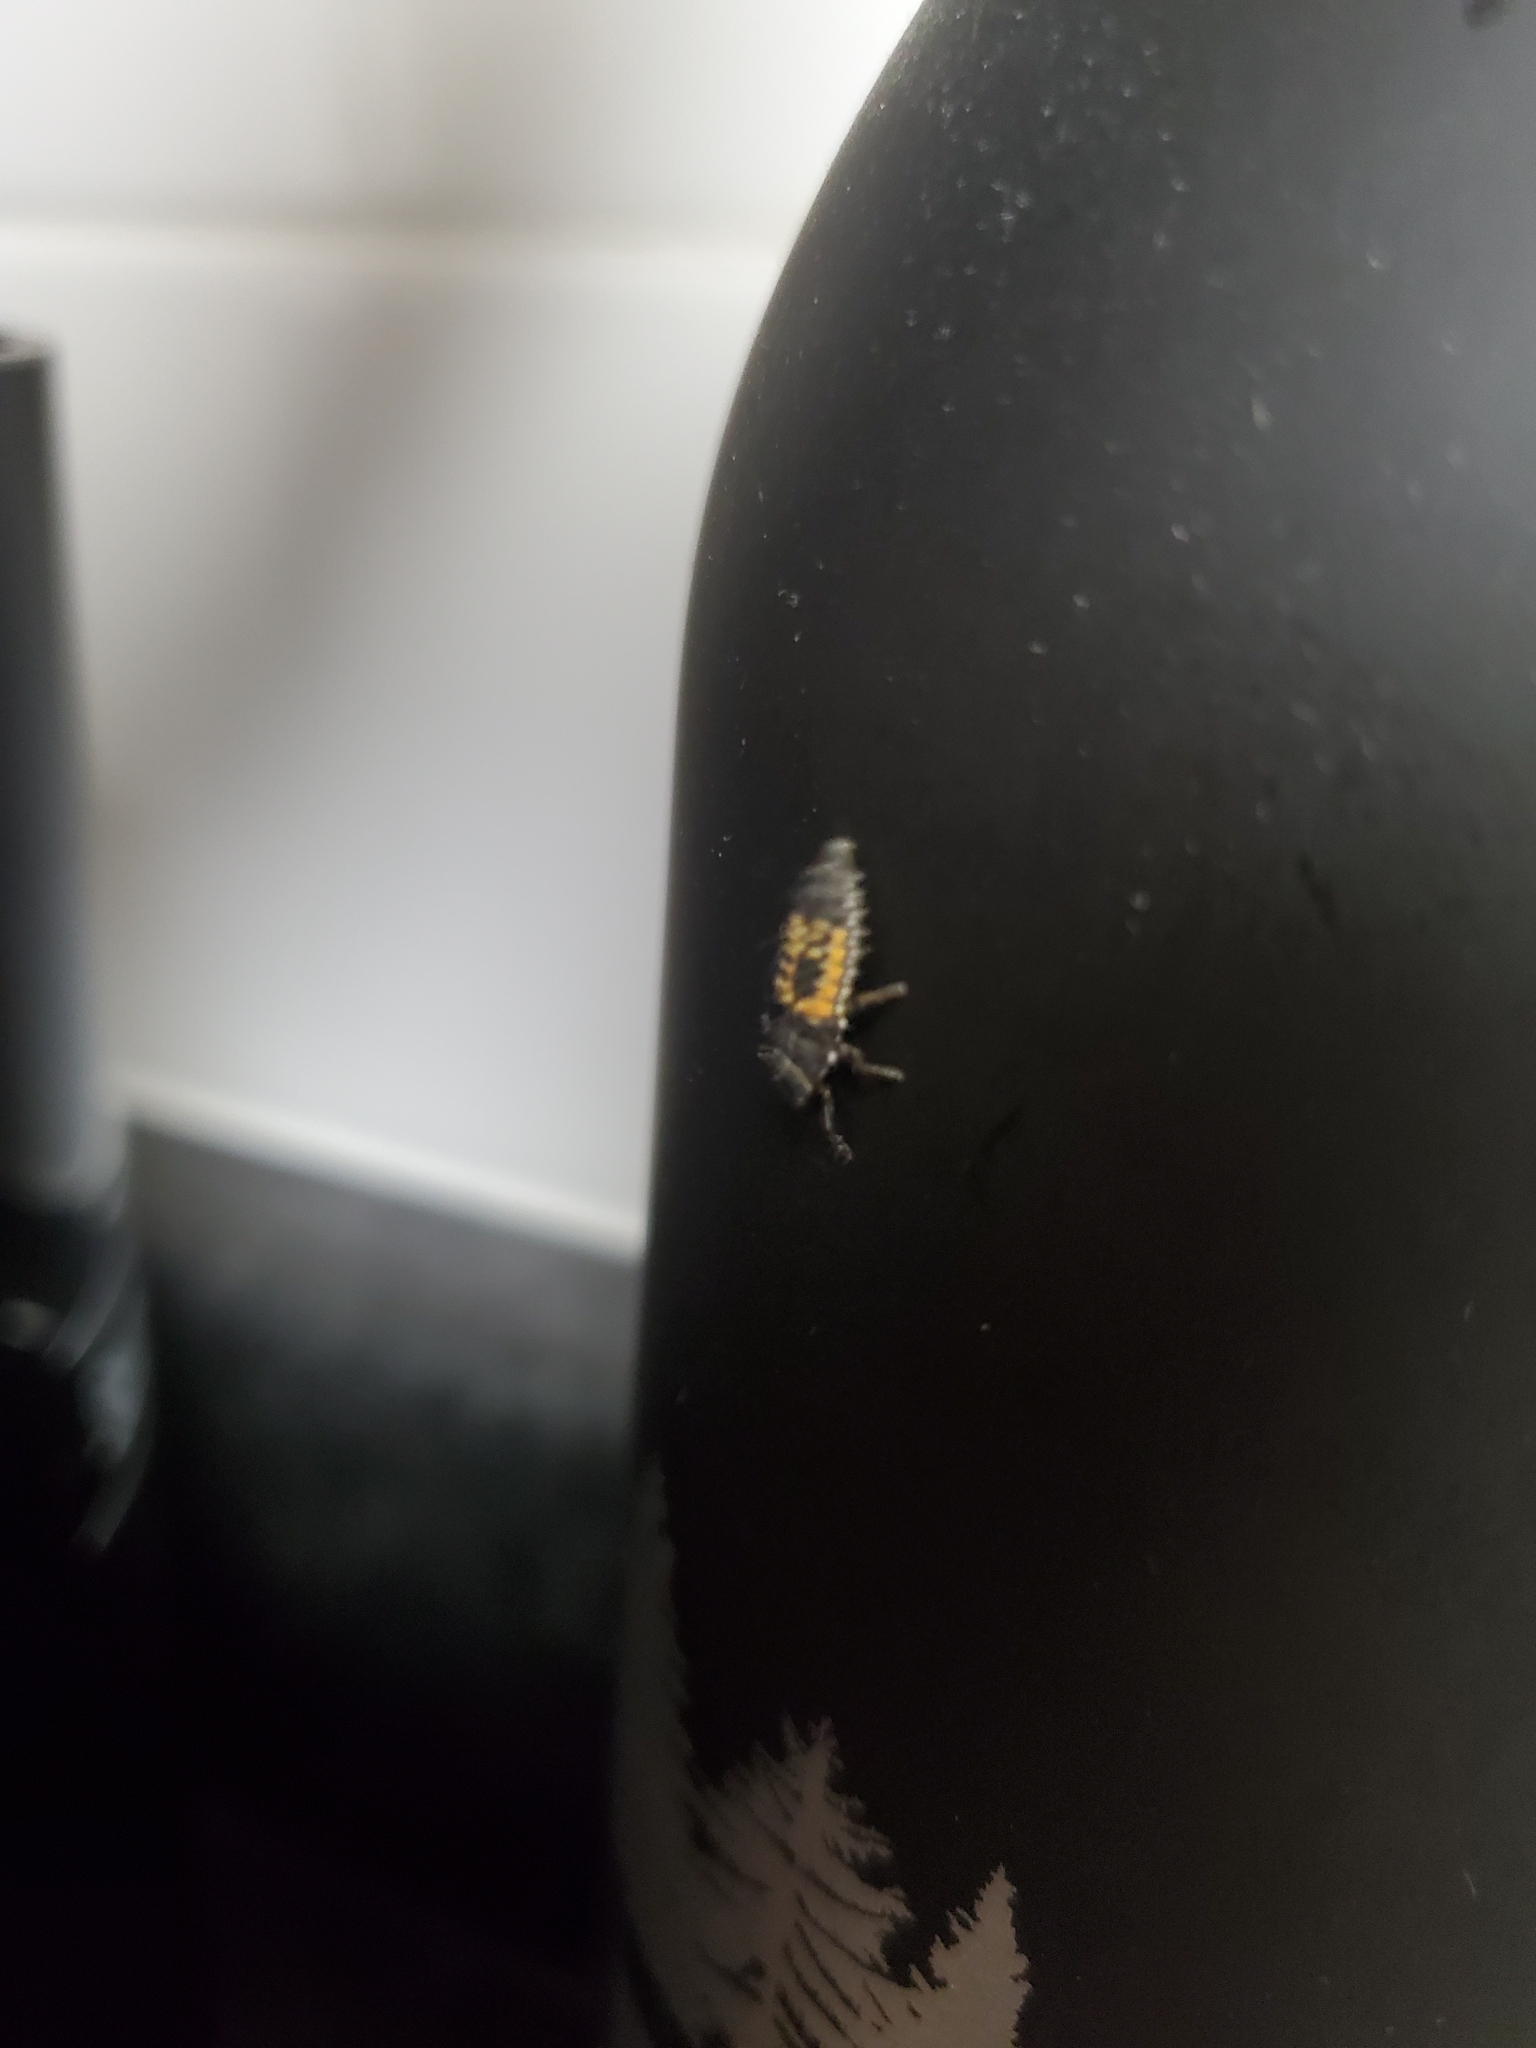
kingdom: Animalia
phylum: Arthropoda
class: Insecta
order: Coleoptera
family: Coccinellidae
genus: Harmonia
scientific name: Harmonia axyridis
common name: Harlequin ladybird
